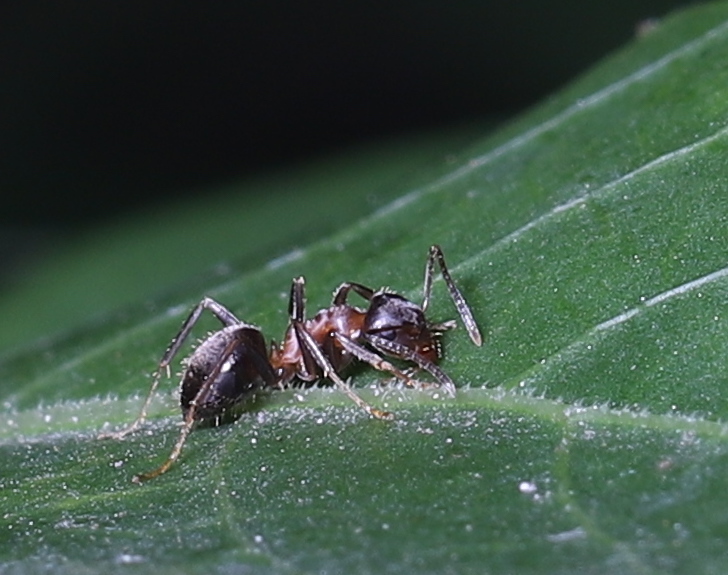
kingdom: Animalia
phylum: Arthropoda
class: Insecta
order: Hymenoptera
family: Formicidae
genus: Lasius
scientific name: Lasius emarginatus
